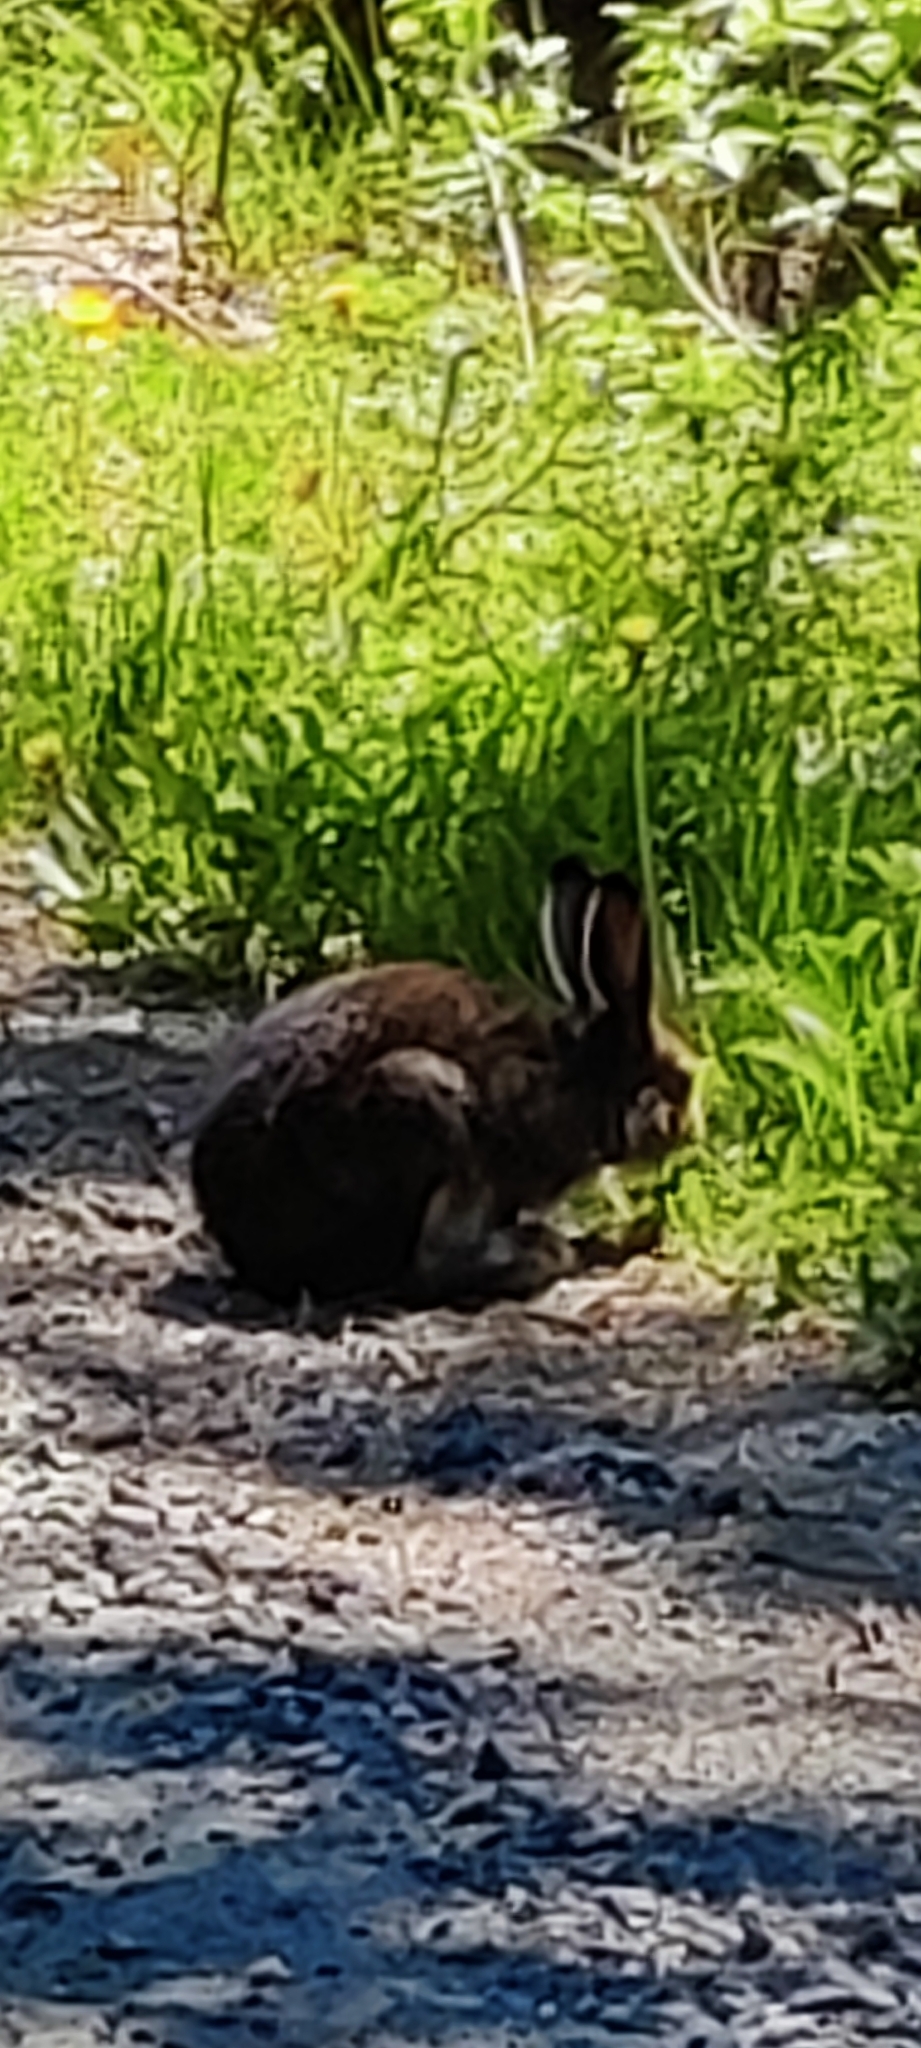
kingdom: Animalia
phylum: Chordata
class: Mammalia
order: Lagomorpha
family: Leporidae
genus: Lepus
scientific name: Lepus timidus
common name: Mountain hare
